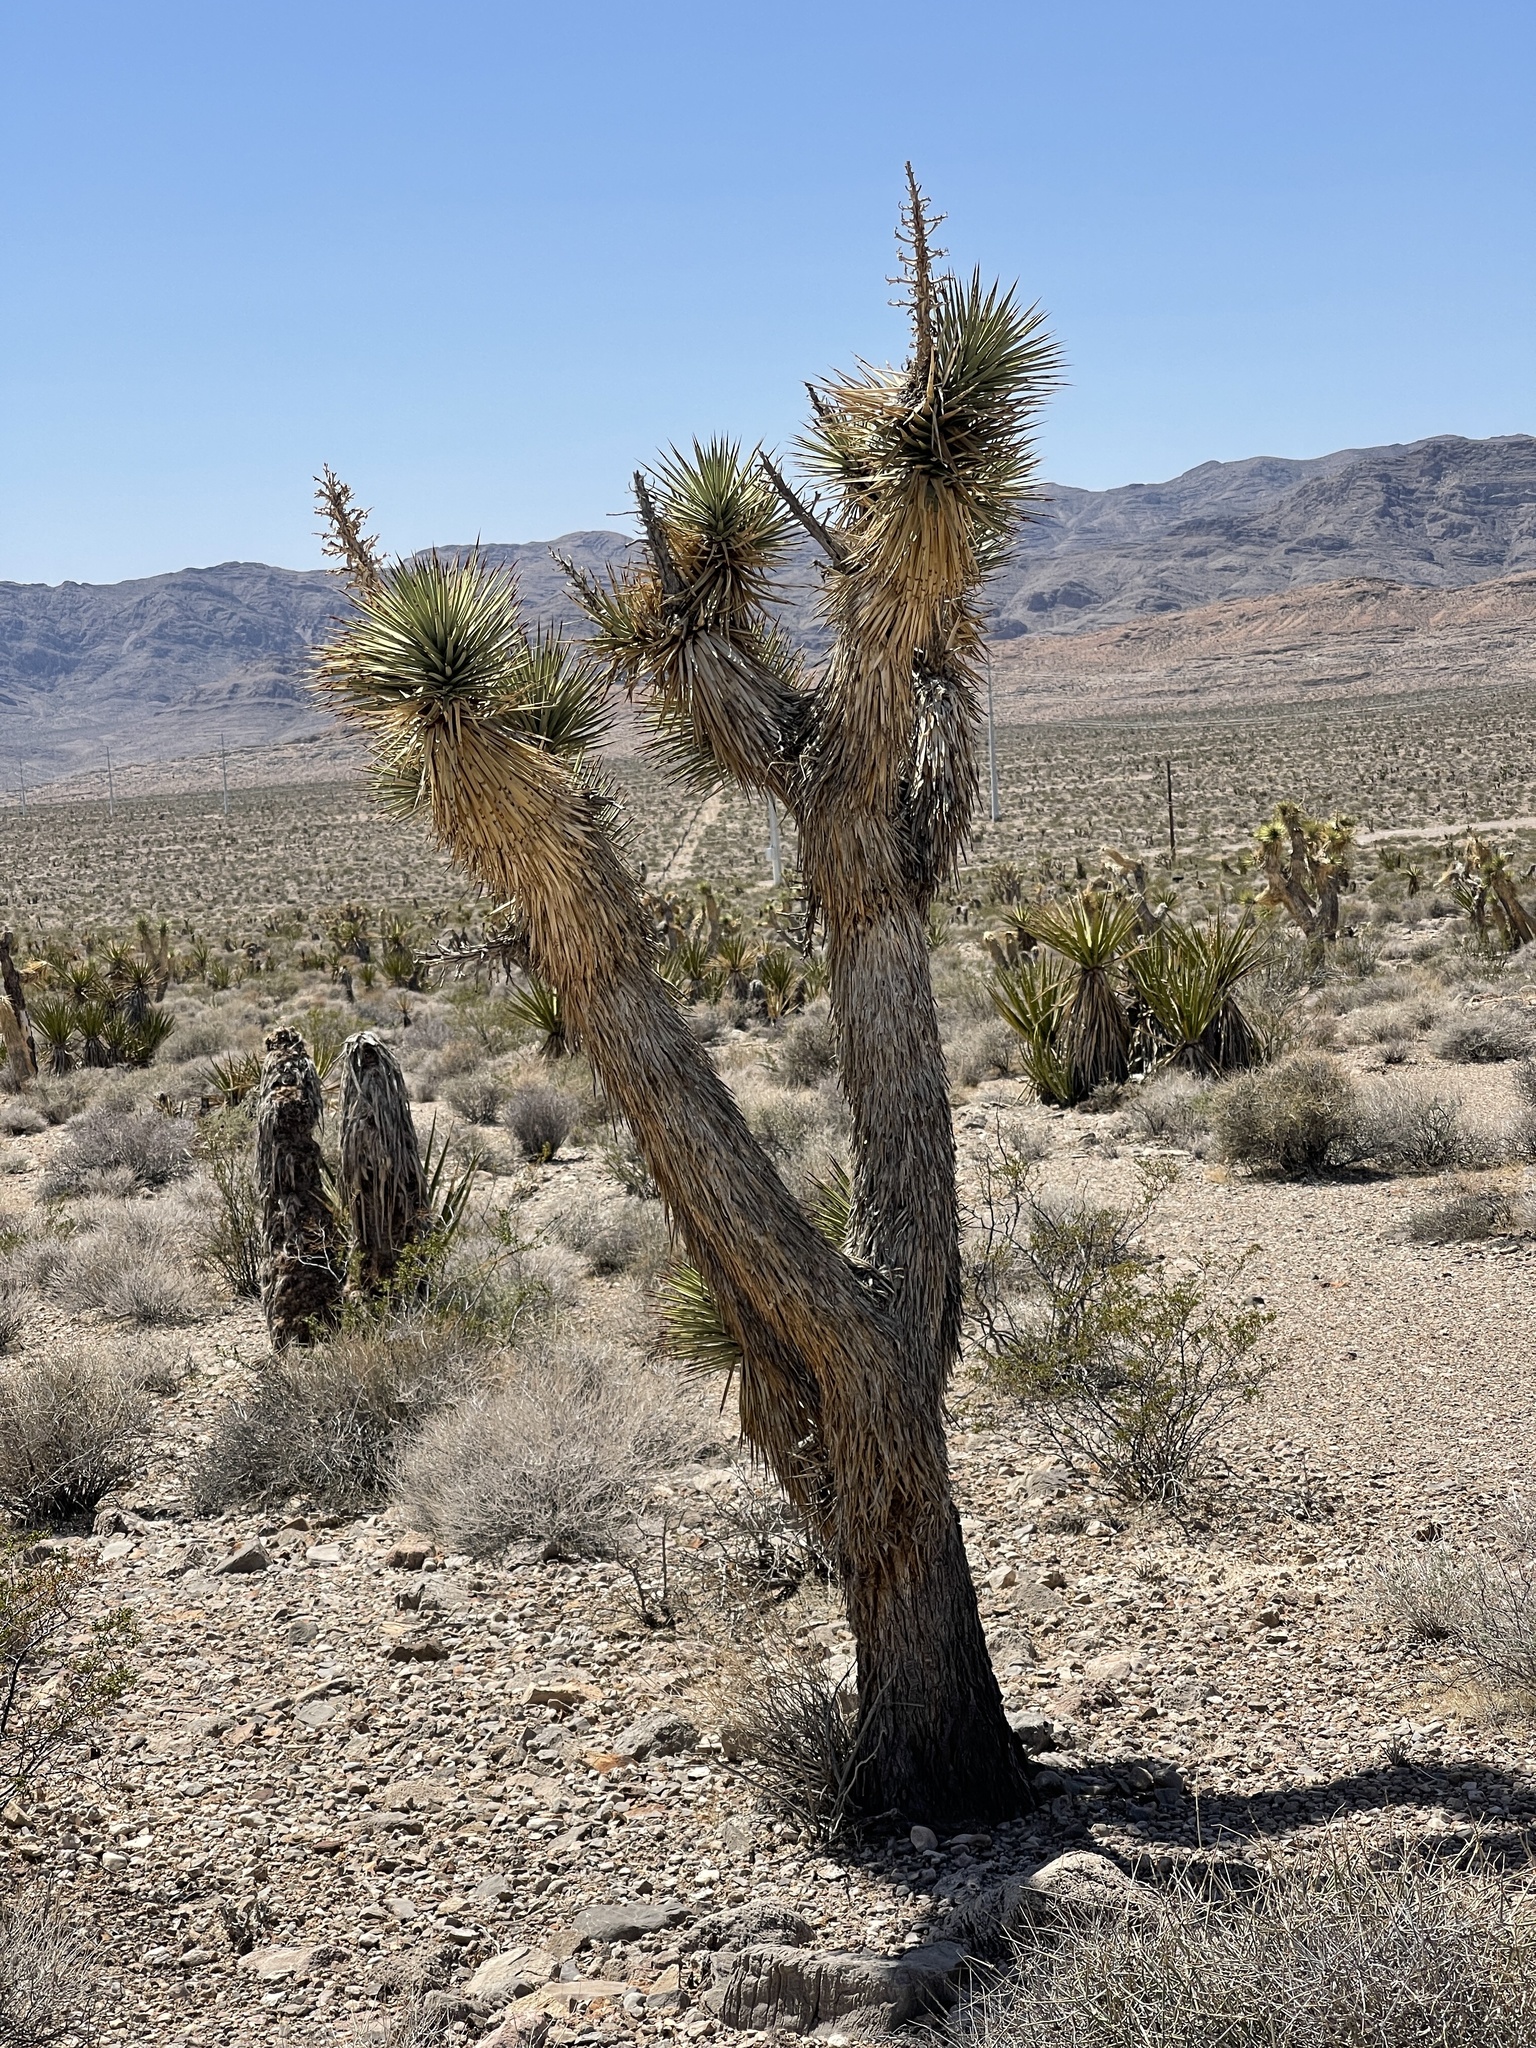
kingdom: Plantae
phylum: Tracheophyta
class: Liliopsida
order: Asparagales
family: Asparagaceae
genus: Yucca
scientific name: Yucca brevifolia
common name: Joshua tree
